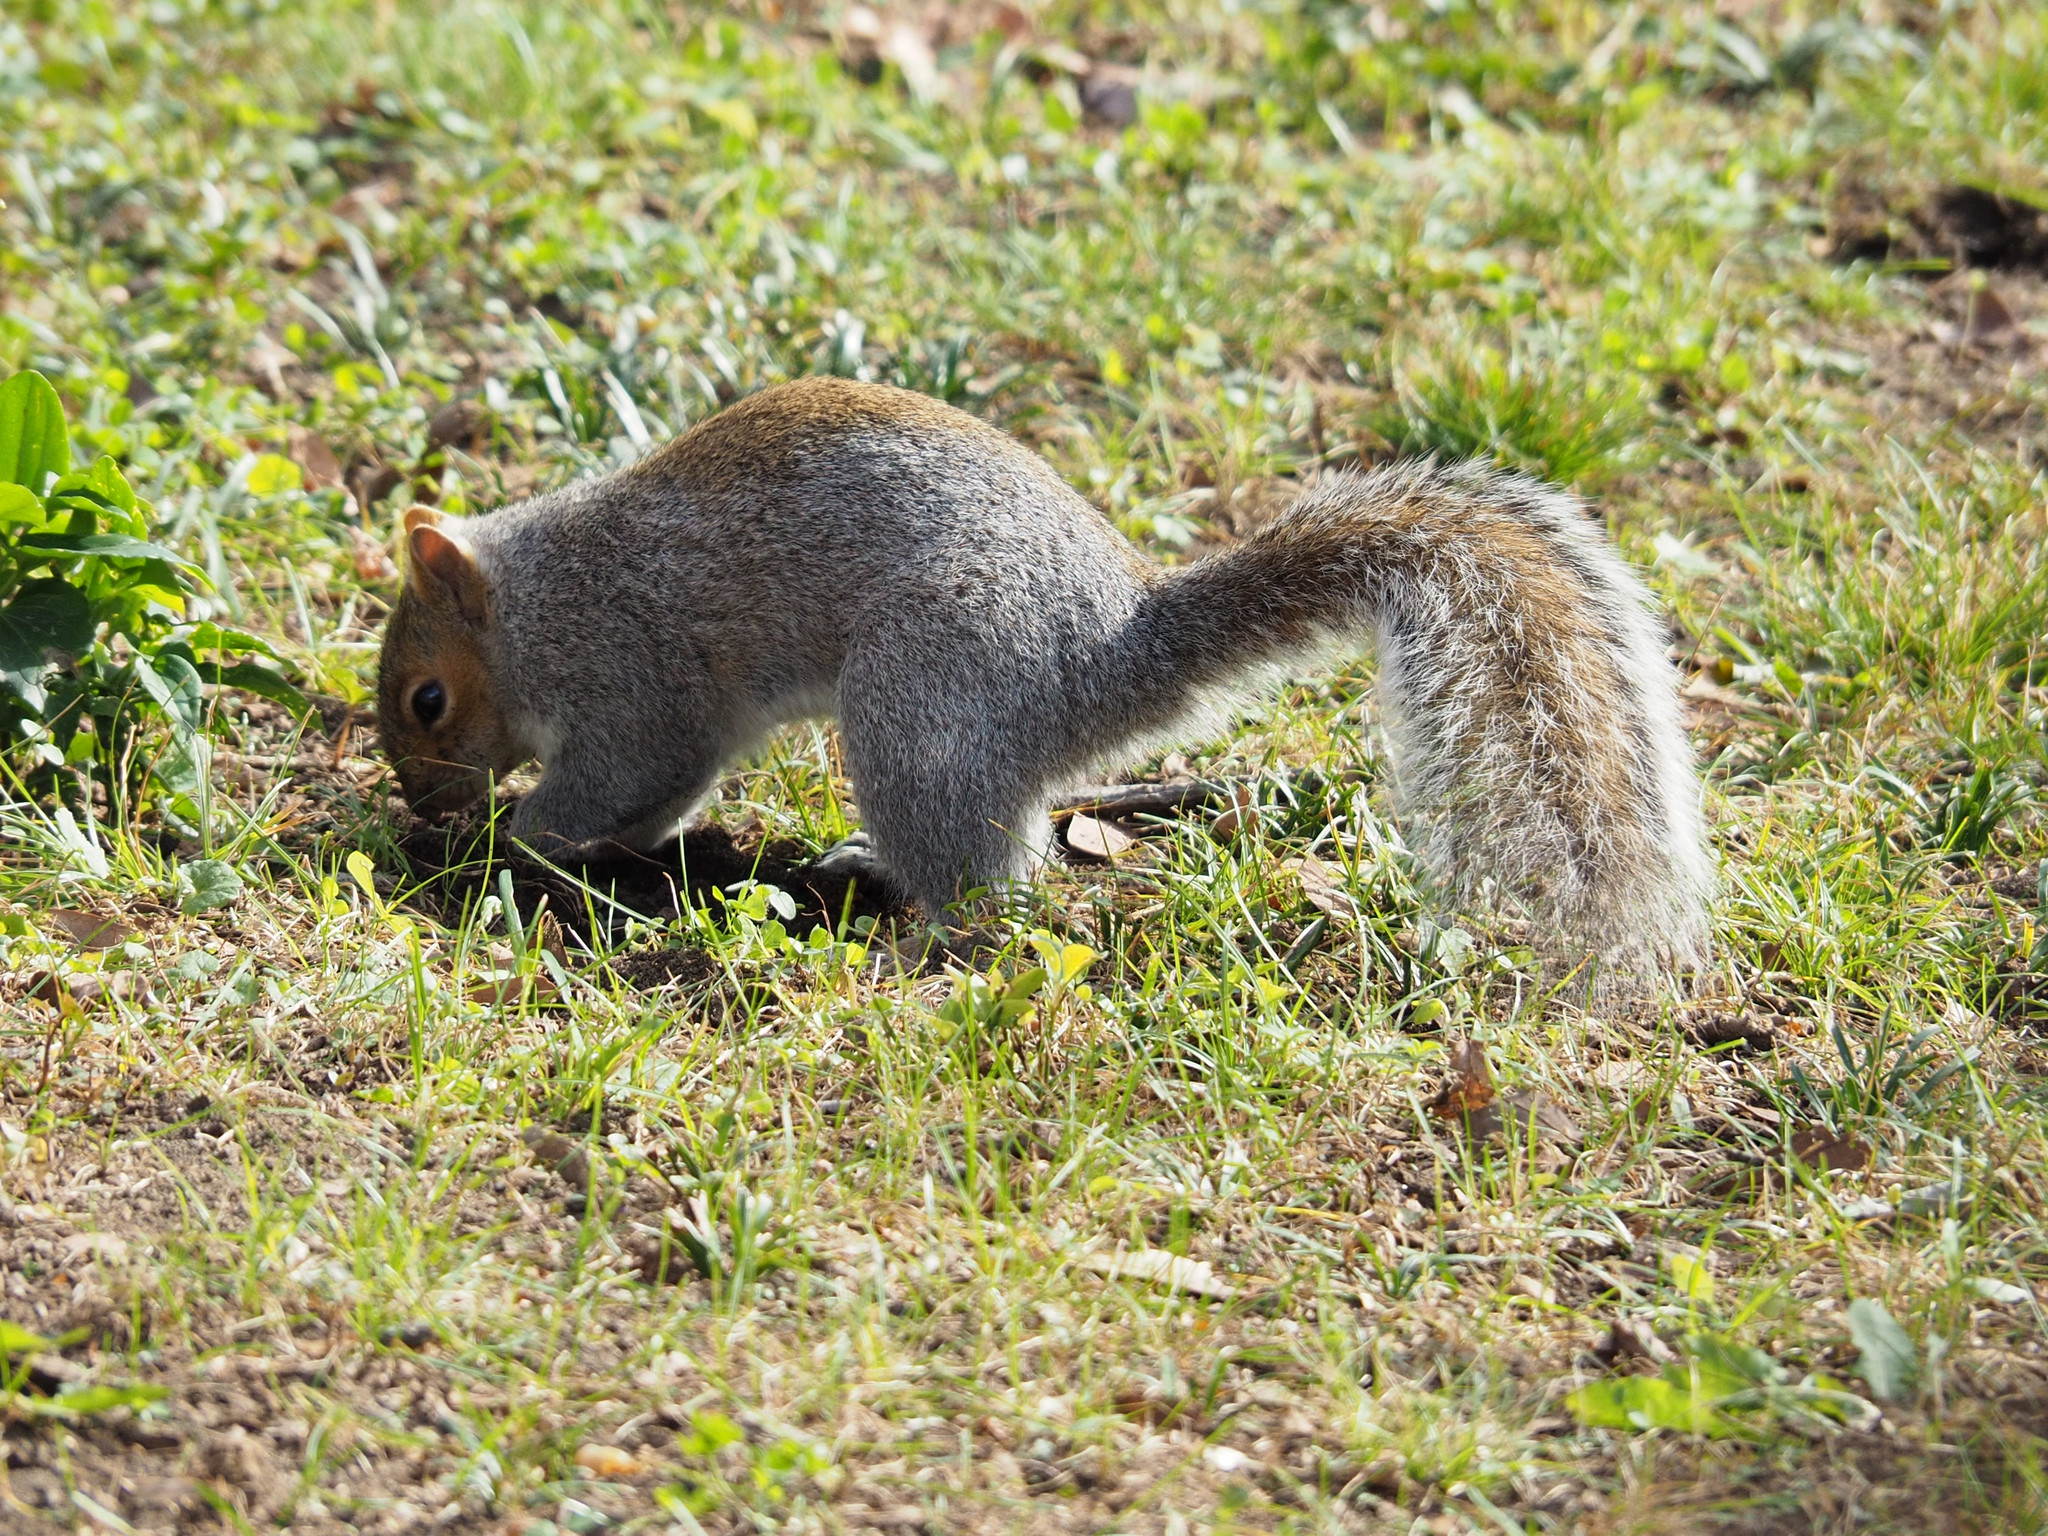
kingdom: Animalia
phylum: Chordata
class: Mammalia
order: Rodentia
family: Sciuridae
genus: Sciurus
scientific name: Sciurus carolinensis
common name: Eastern gray squirrel
